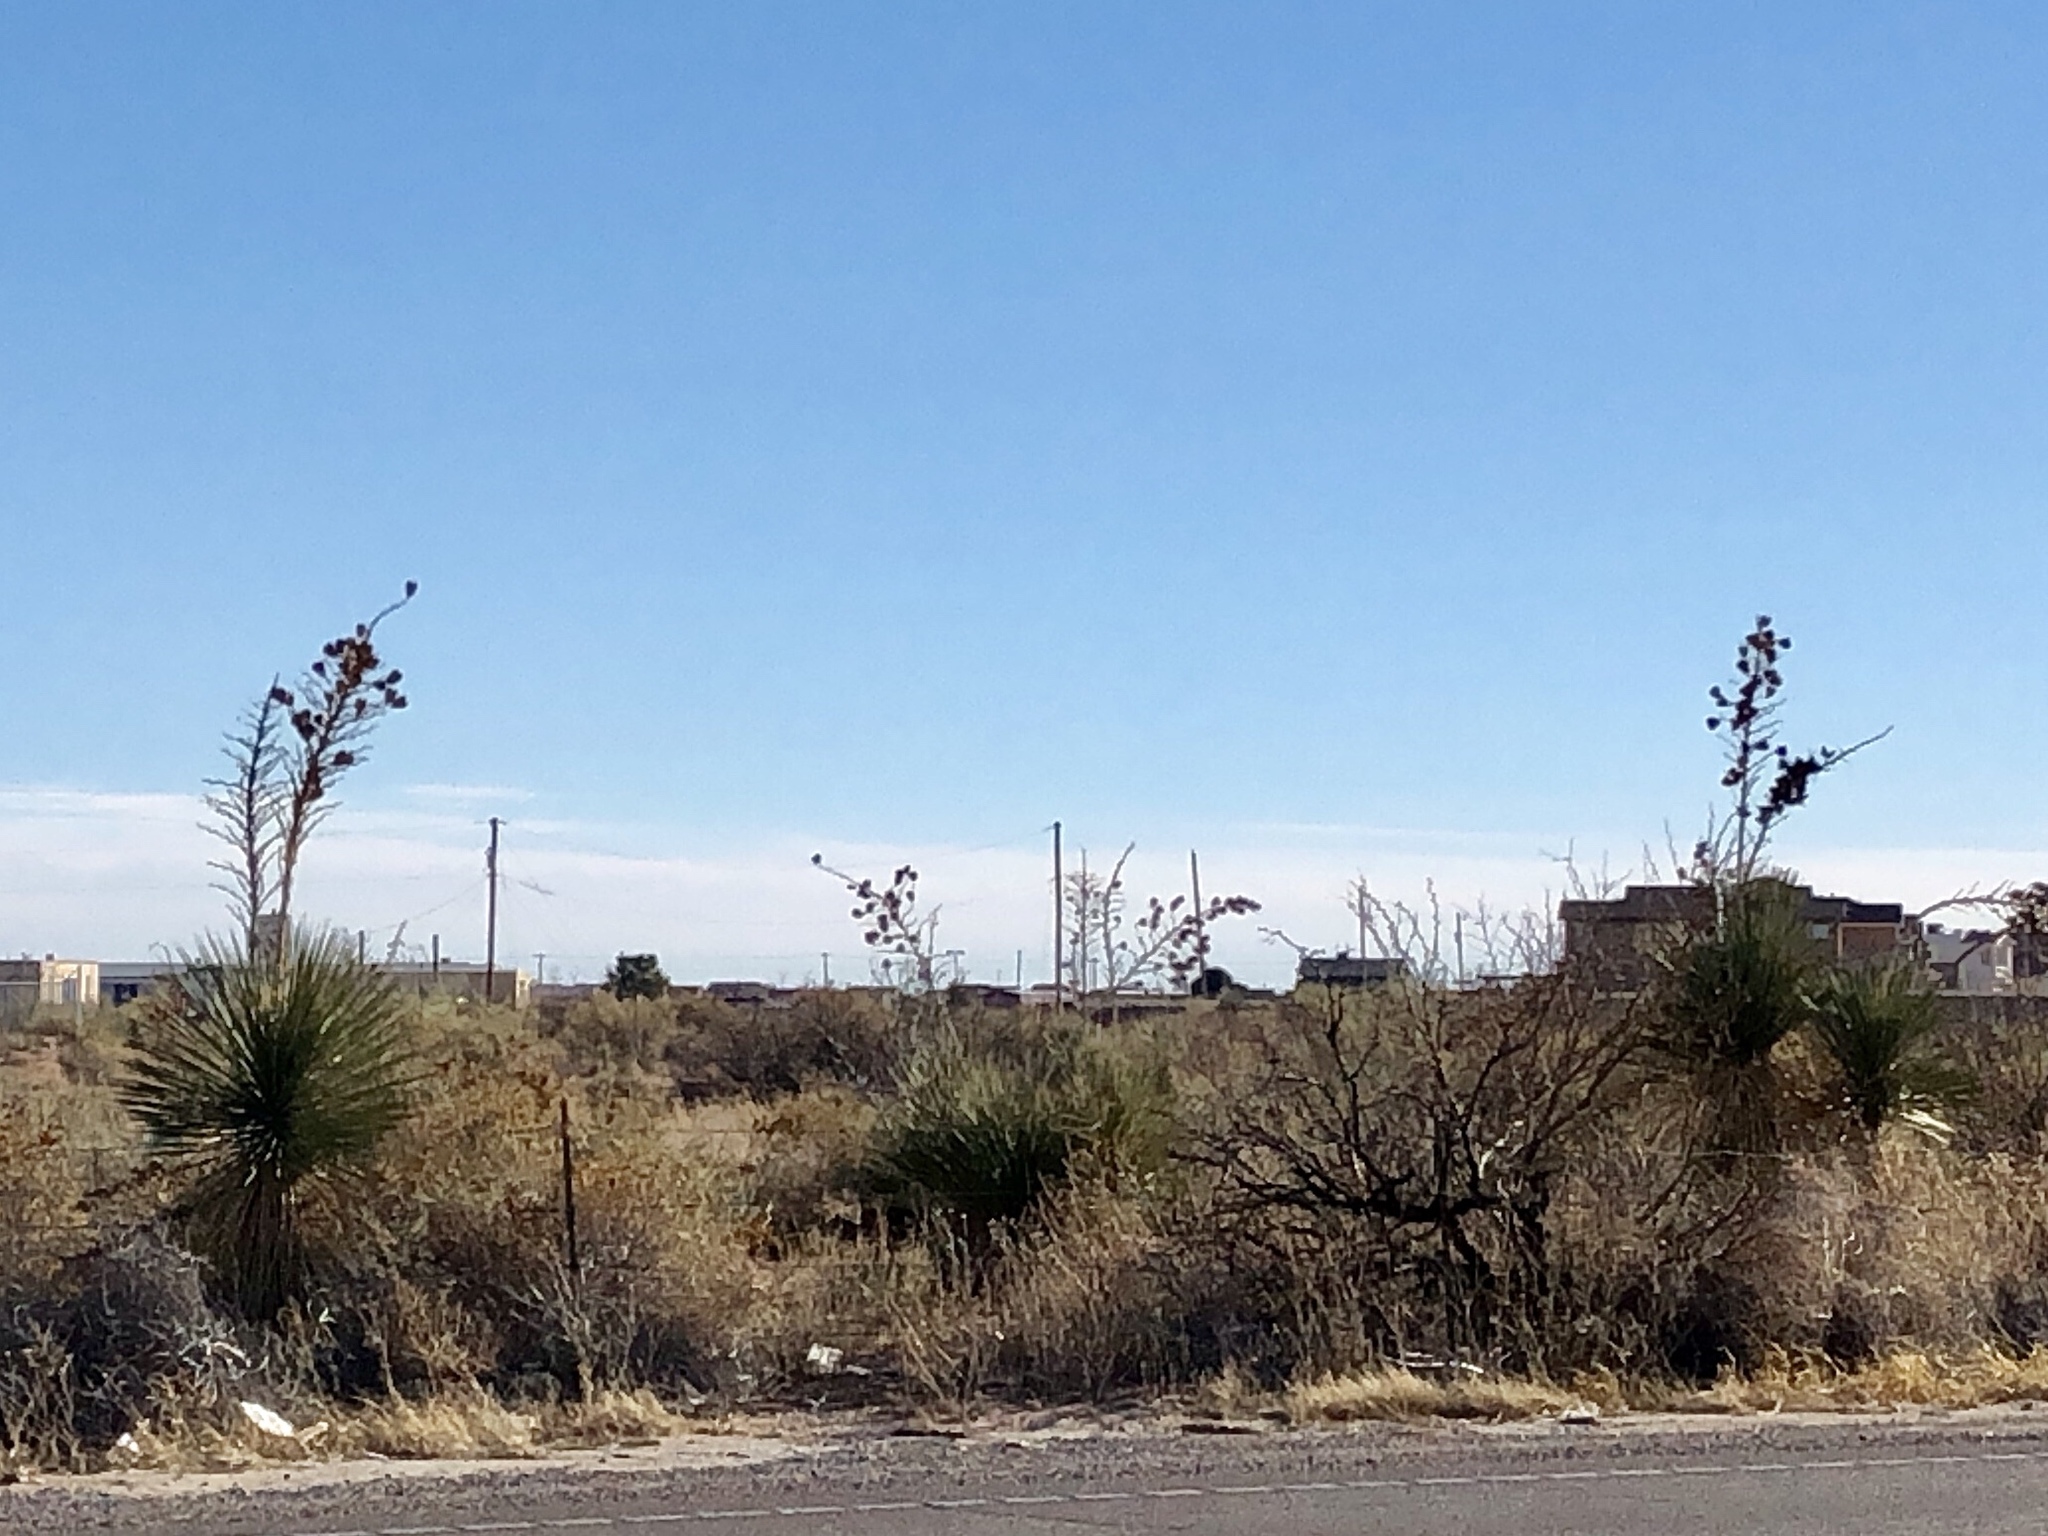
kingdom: Plantae
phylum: Tracheophyta
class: Liliopsida
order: Asparagales
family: Asparagaceae
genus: Yucca
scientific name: Yucca elata
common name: Palmella
